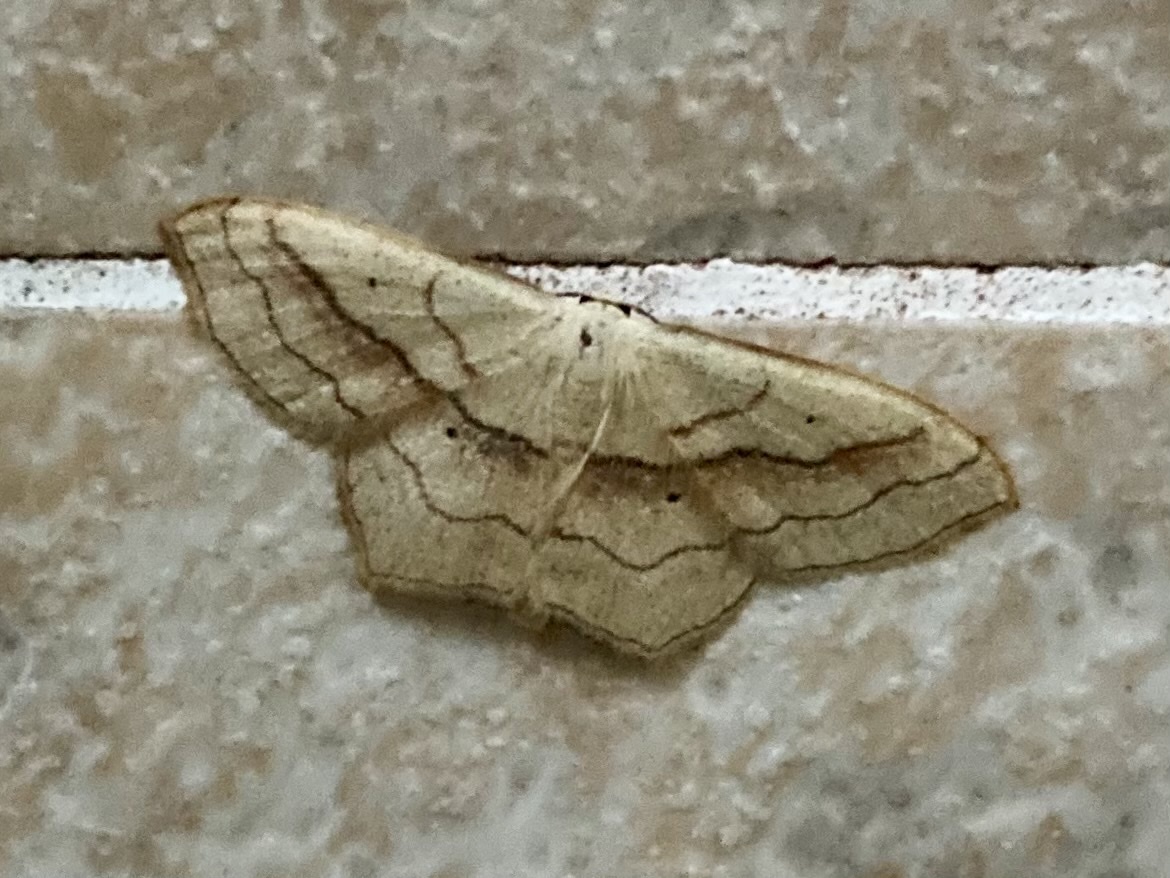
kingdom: Animalia
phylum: Arthropoda
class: Insecta
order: Lepidoptera
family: Geometridae
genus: Scopula
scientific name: Scopula imitaria
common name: Small blood-vein
